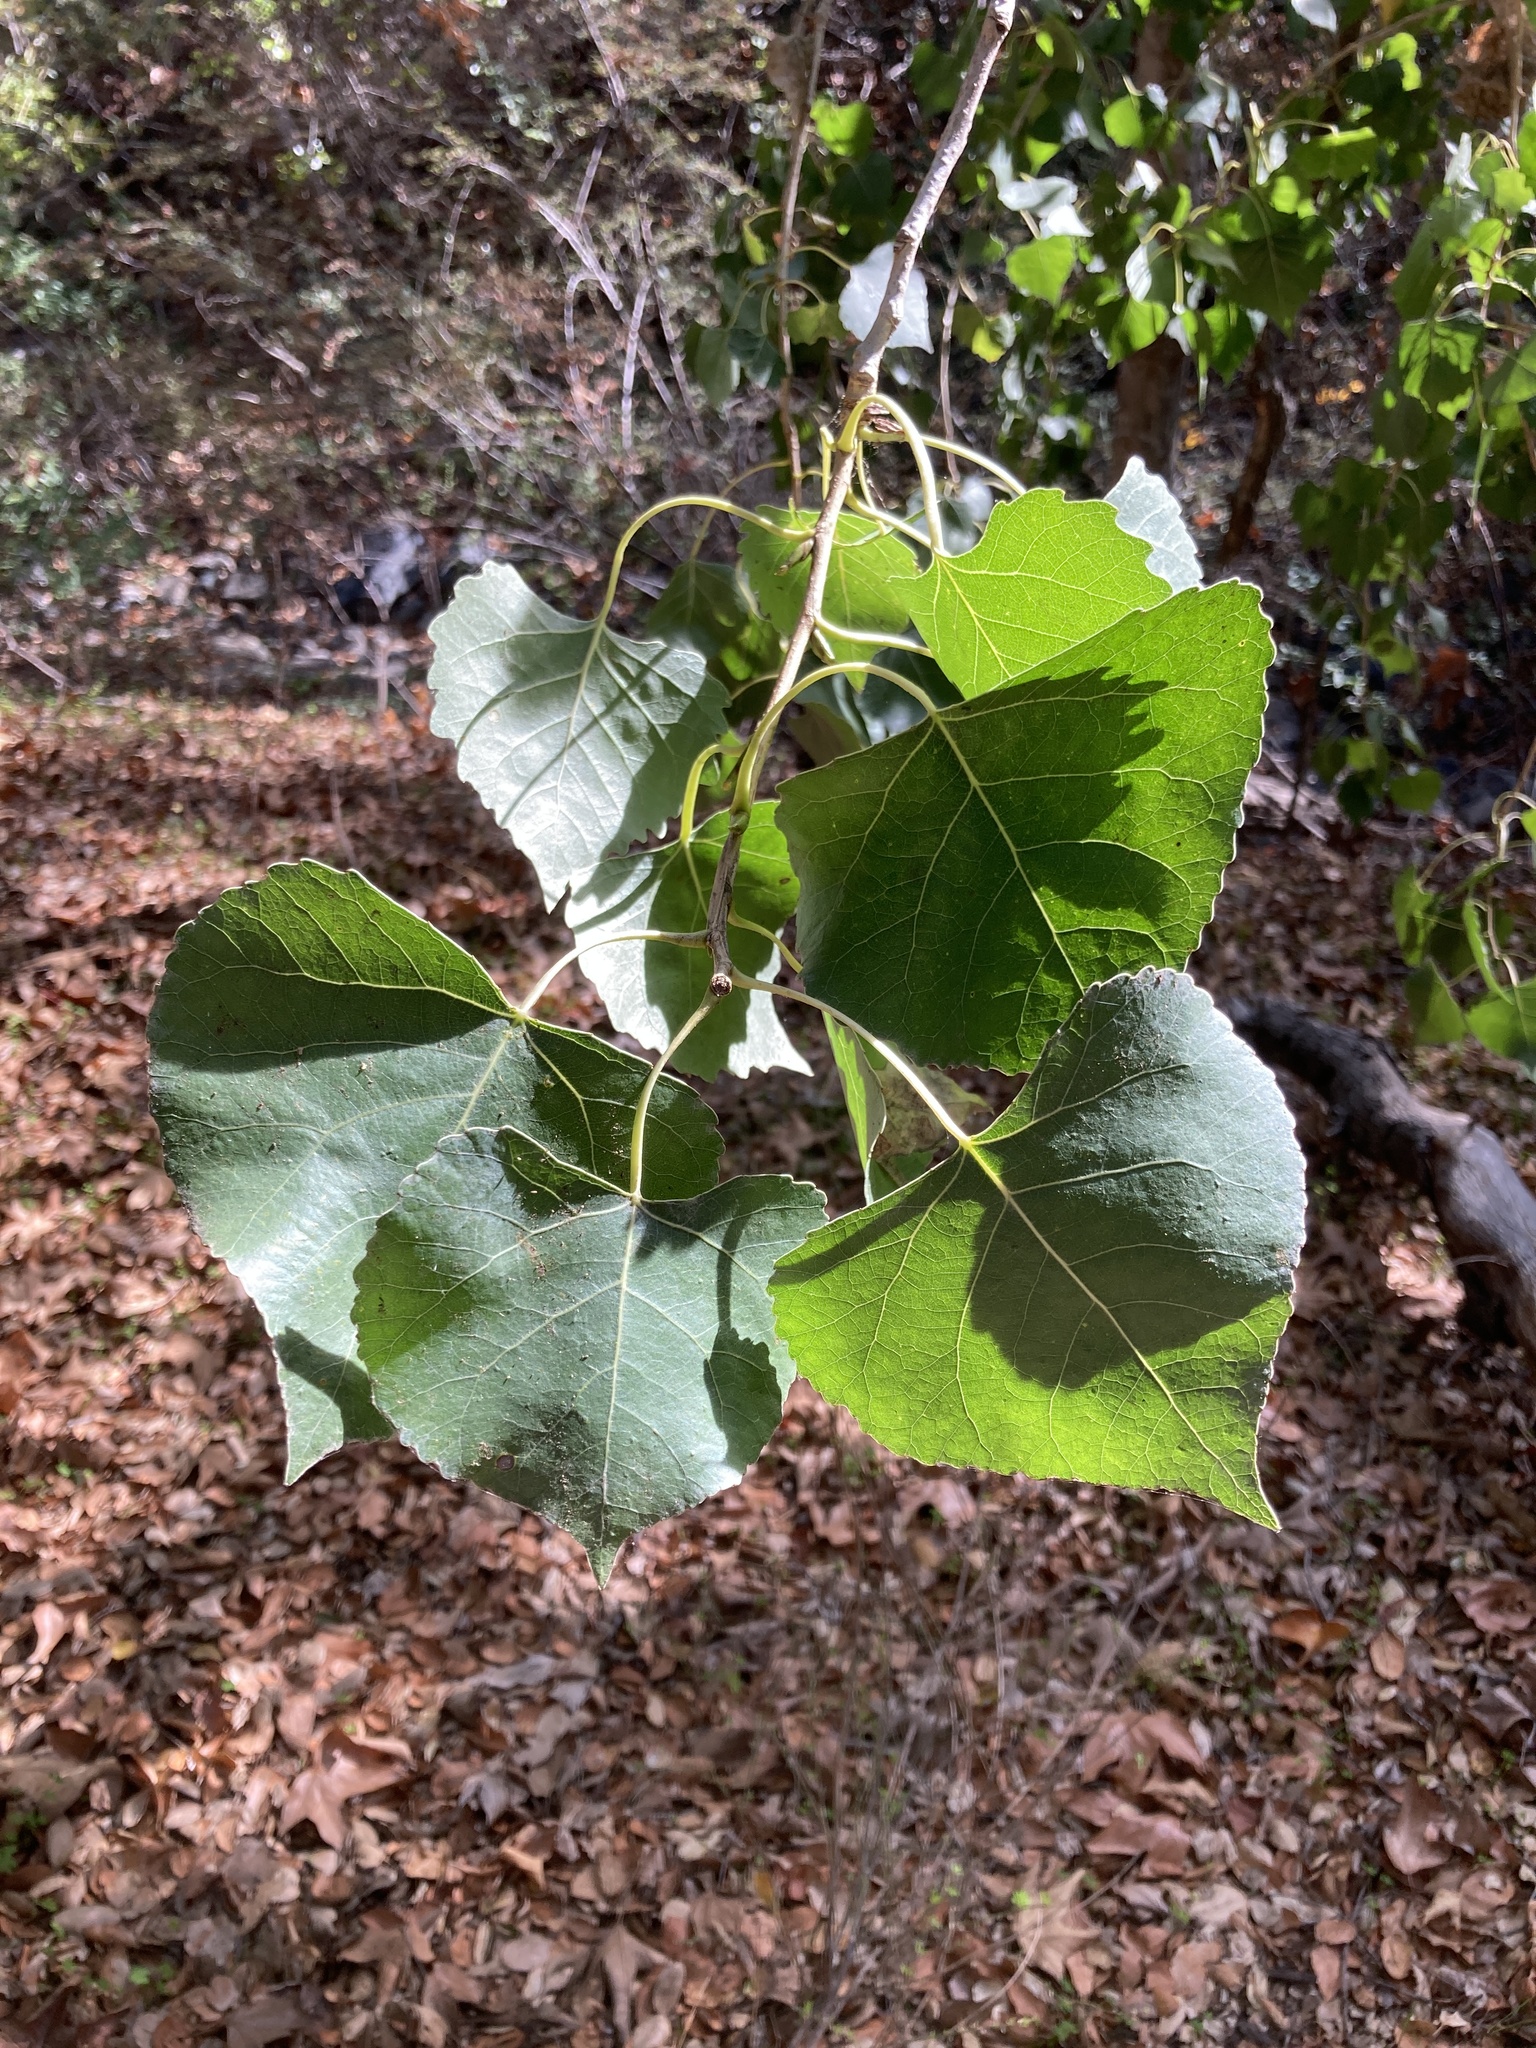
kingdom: Plantae
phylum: Tracheophyta
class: Magnoliopsida
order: Malpighiales
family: Salicaceae
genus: Populus
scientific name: Populus fremontii
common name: Fremont's cottonwood
